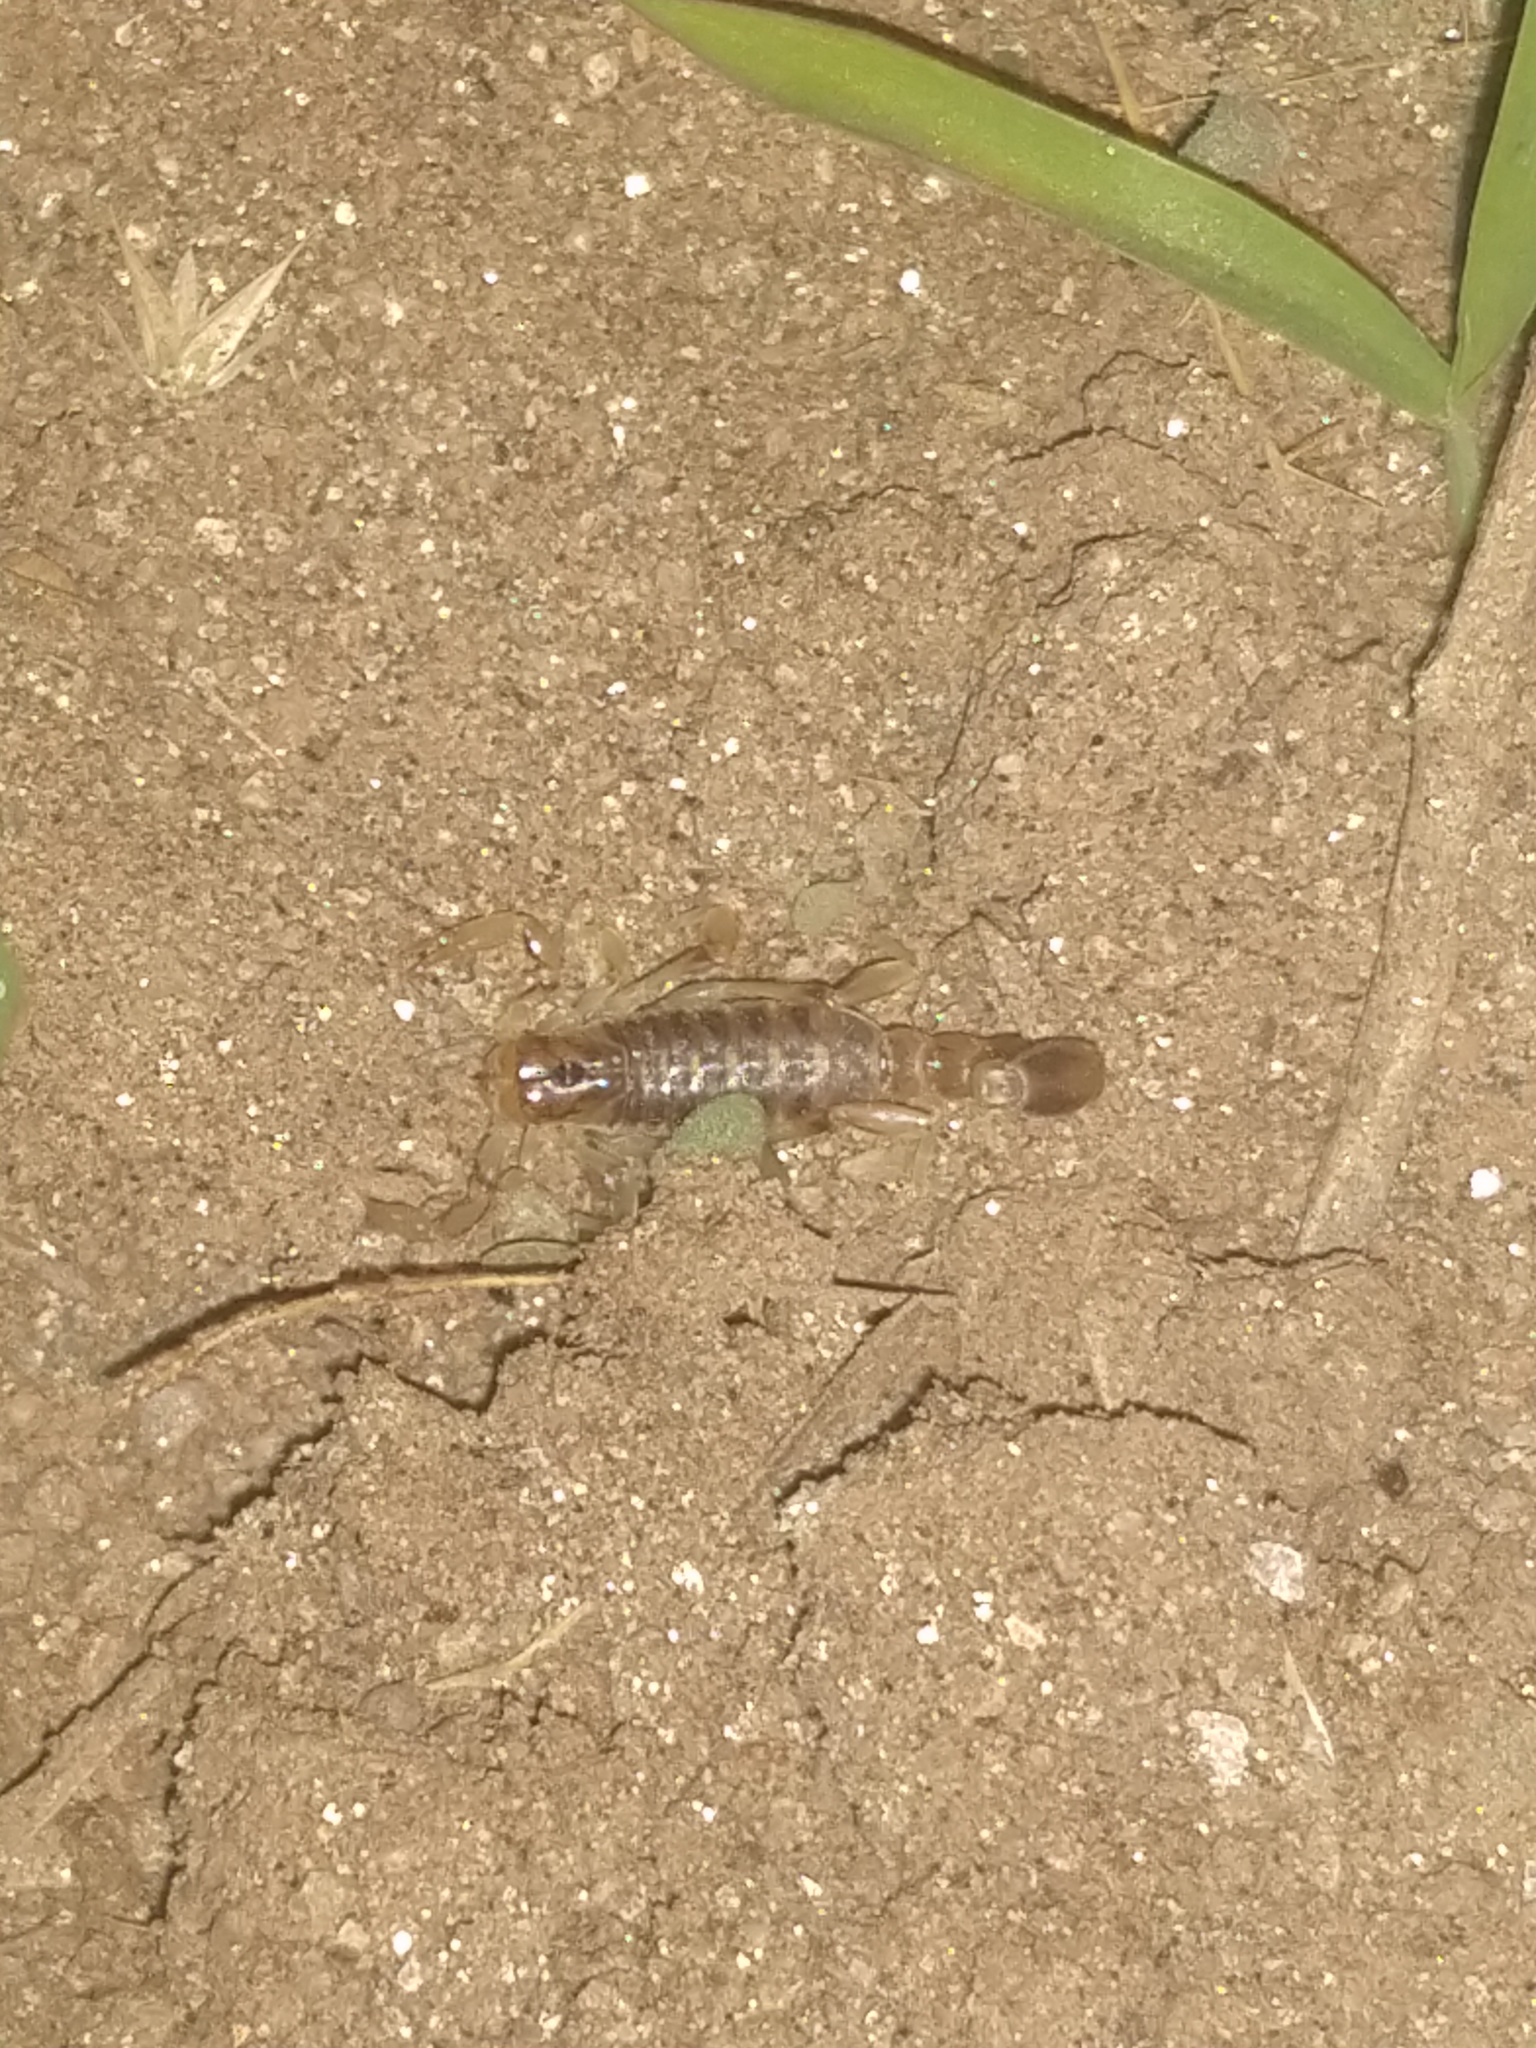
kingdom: Animalia
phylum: Arthropoda
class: Arachnida
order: Scorpiones
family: Bothriuridae
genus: Brachistosternus
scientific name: Brachistosternus ferrugineus
